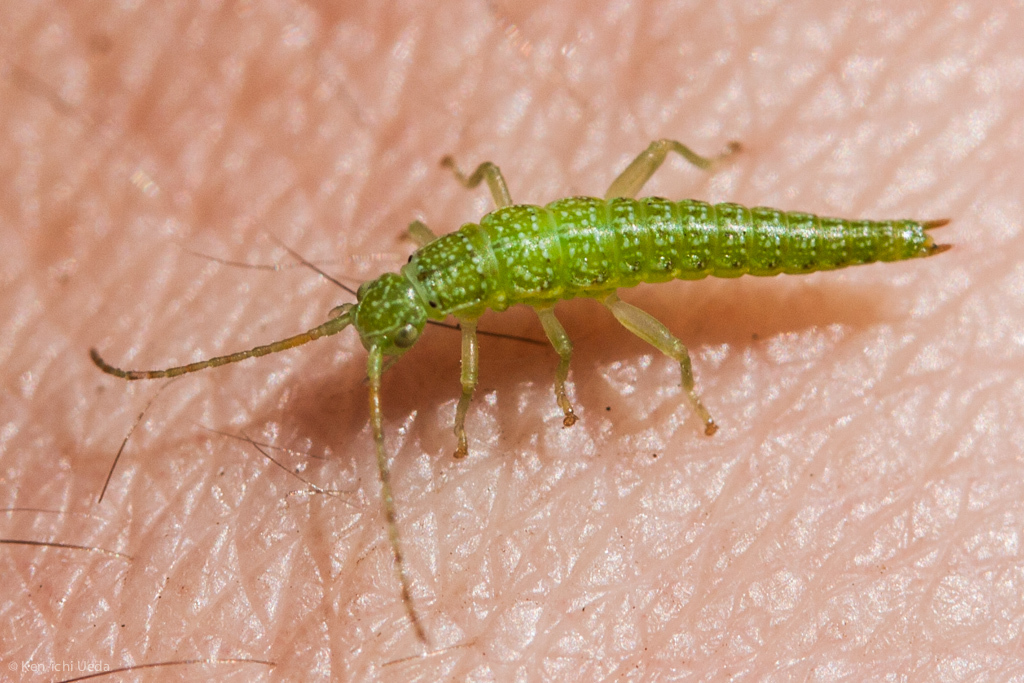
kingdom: Animalia
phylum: Arthropoda
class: Insecta
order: Phasmida
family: Timematidae
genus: Timema
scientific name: Timema californicum
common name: California timema
